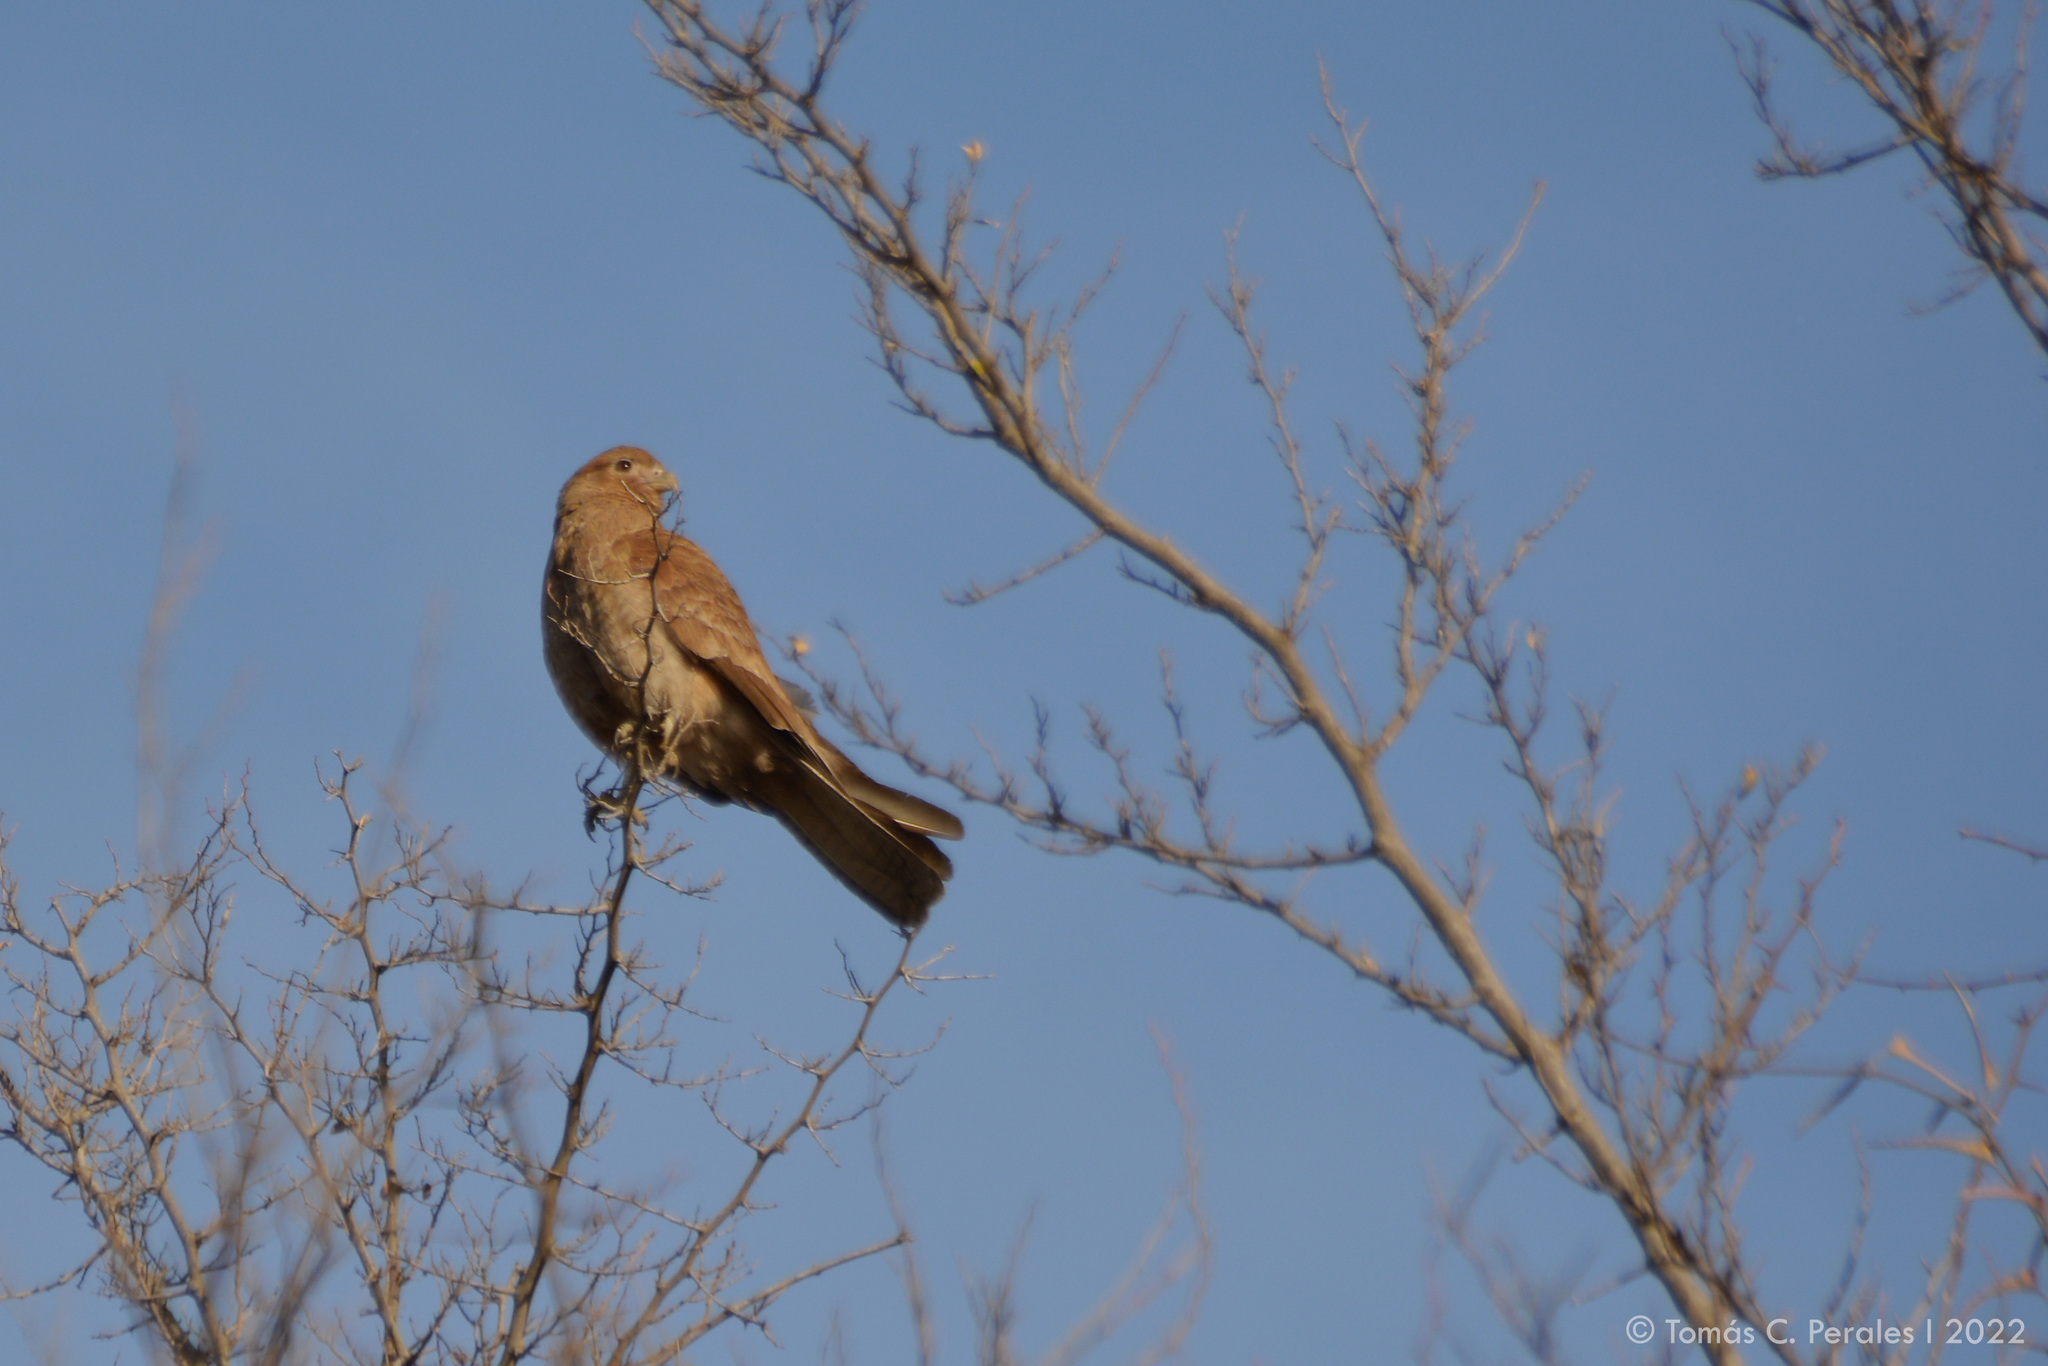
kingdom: Animalia
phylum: Chordata
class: Aves
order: Falconiformes
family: Falconidae
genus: Daptrius
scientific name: Daptrius
